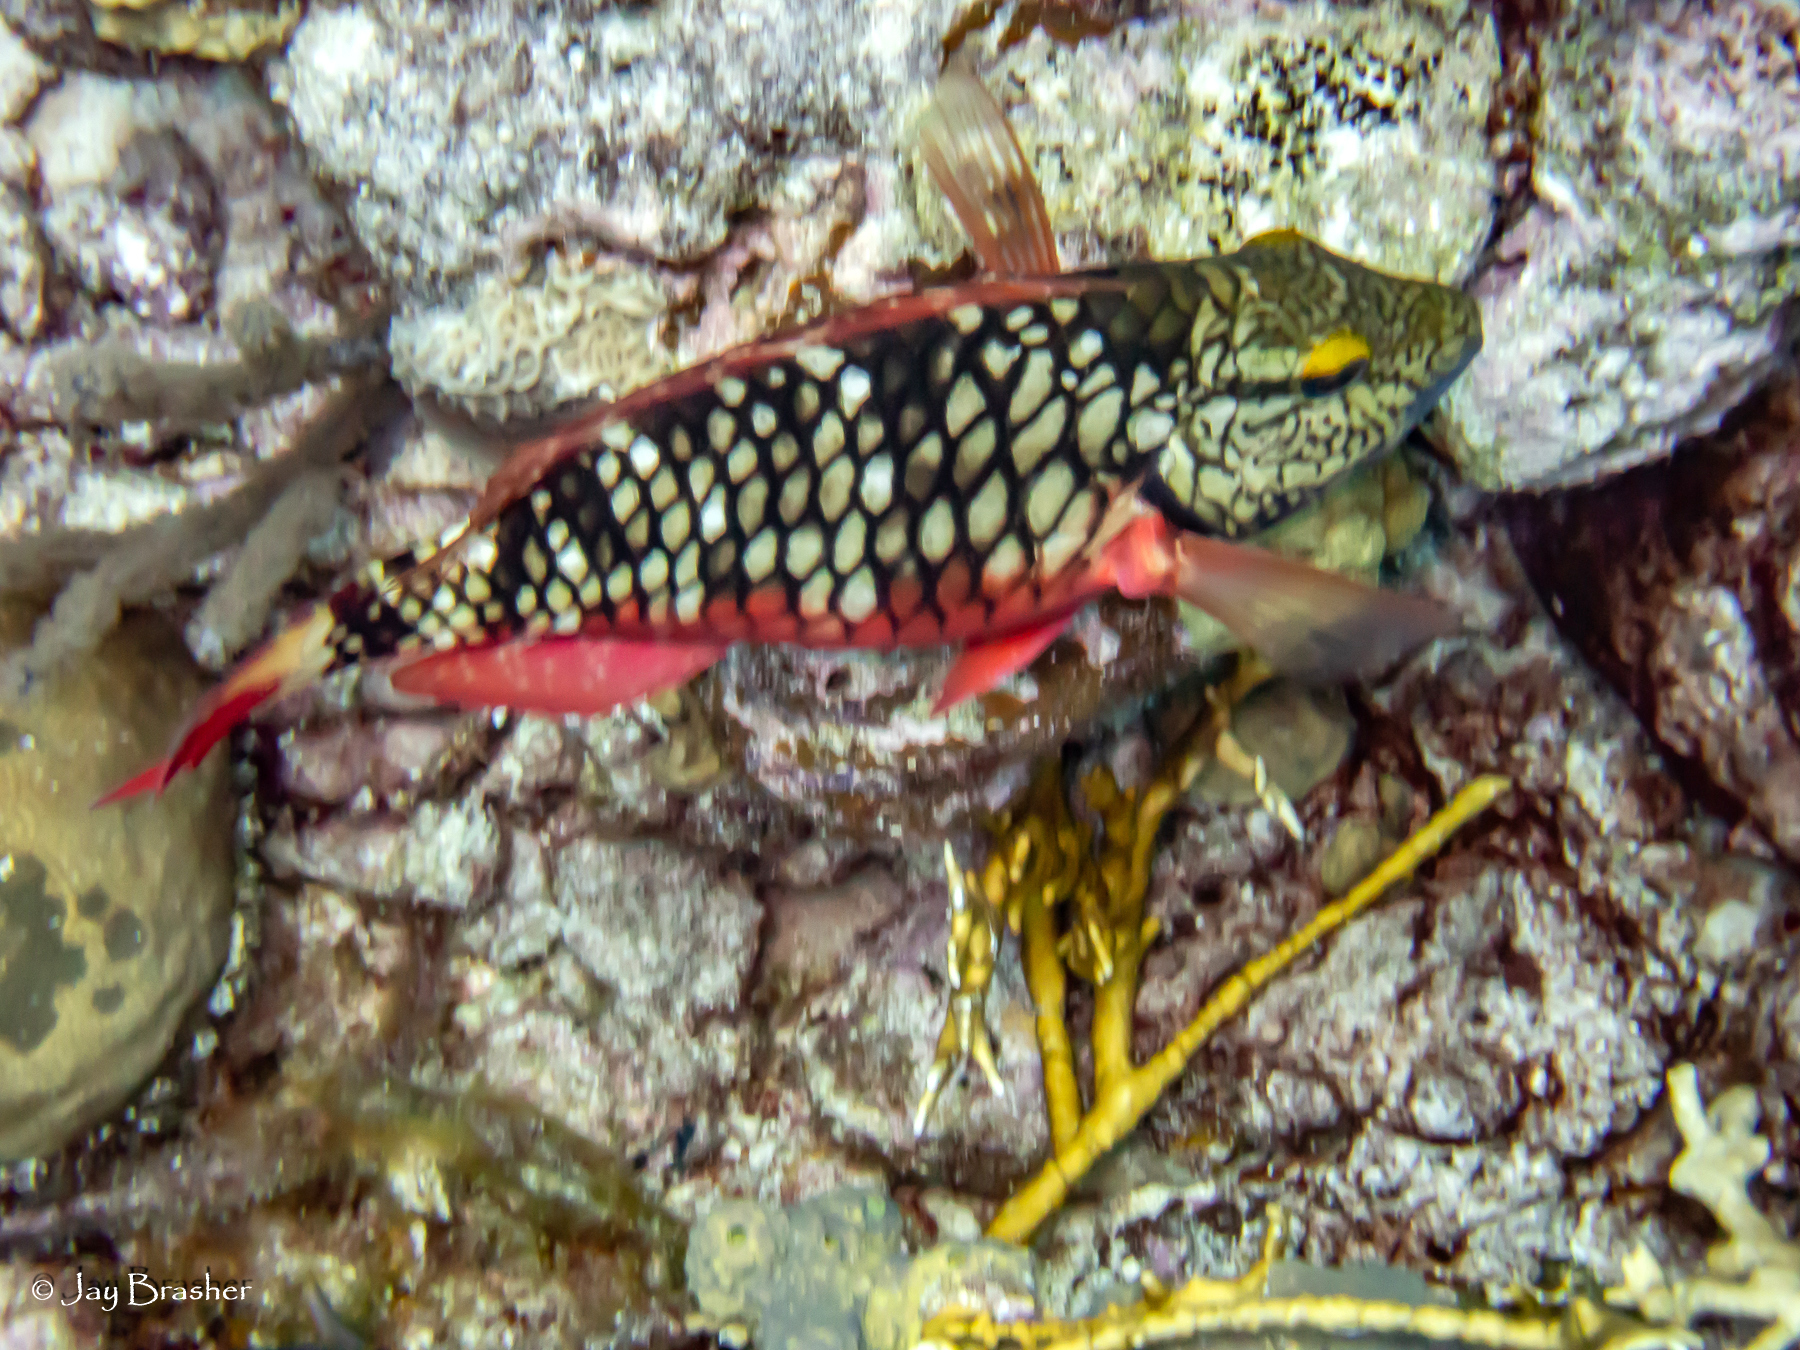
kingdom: Animalia
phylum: Chordata
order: Perciformes
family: Scaridae
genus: Sparisoma
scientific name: Sparisoma viride
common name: Stoplight parrotfish
